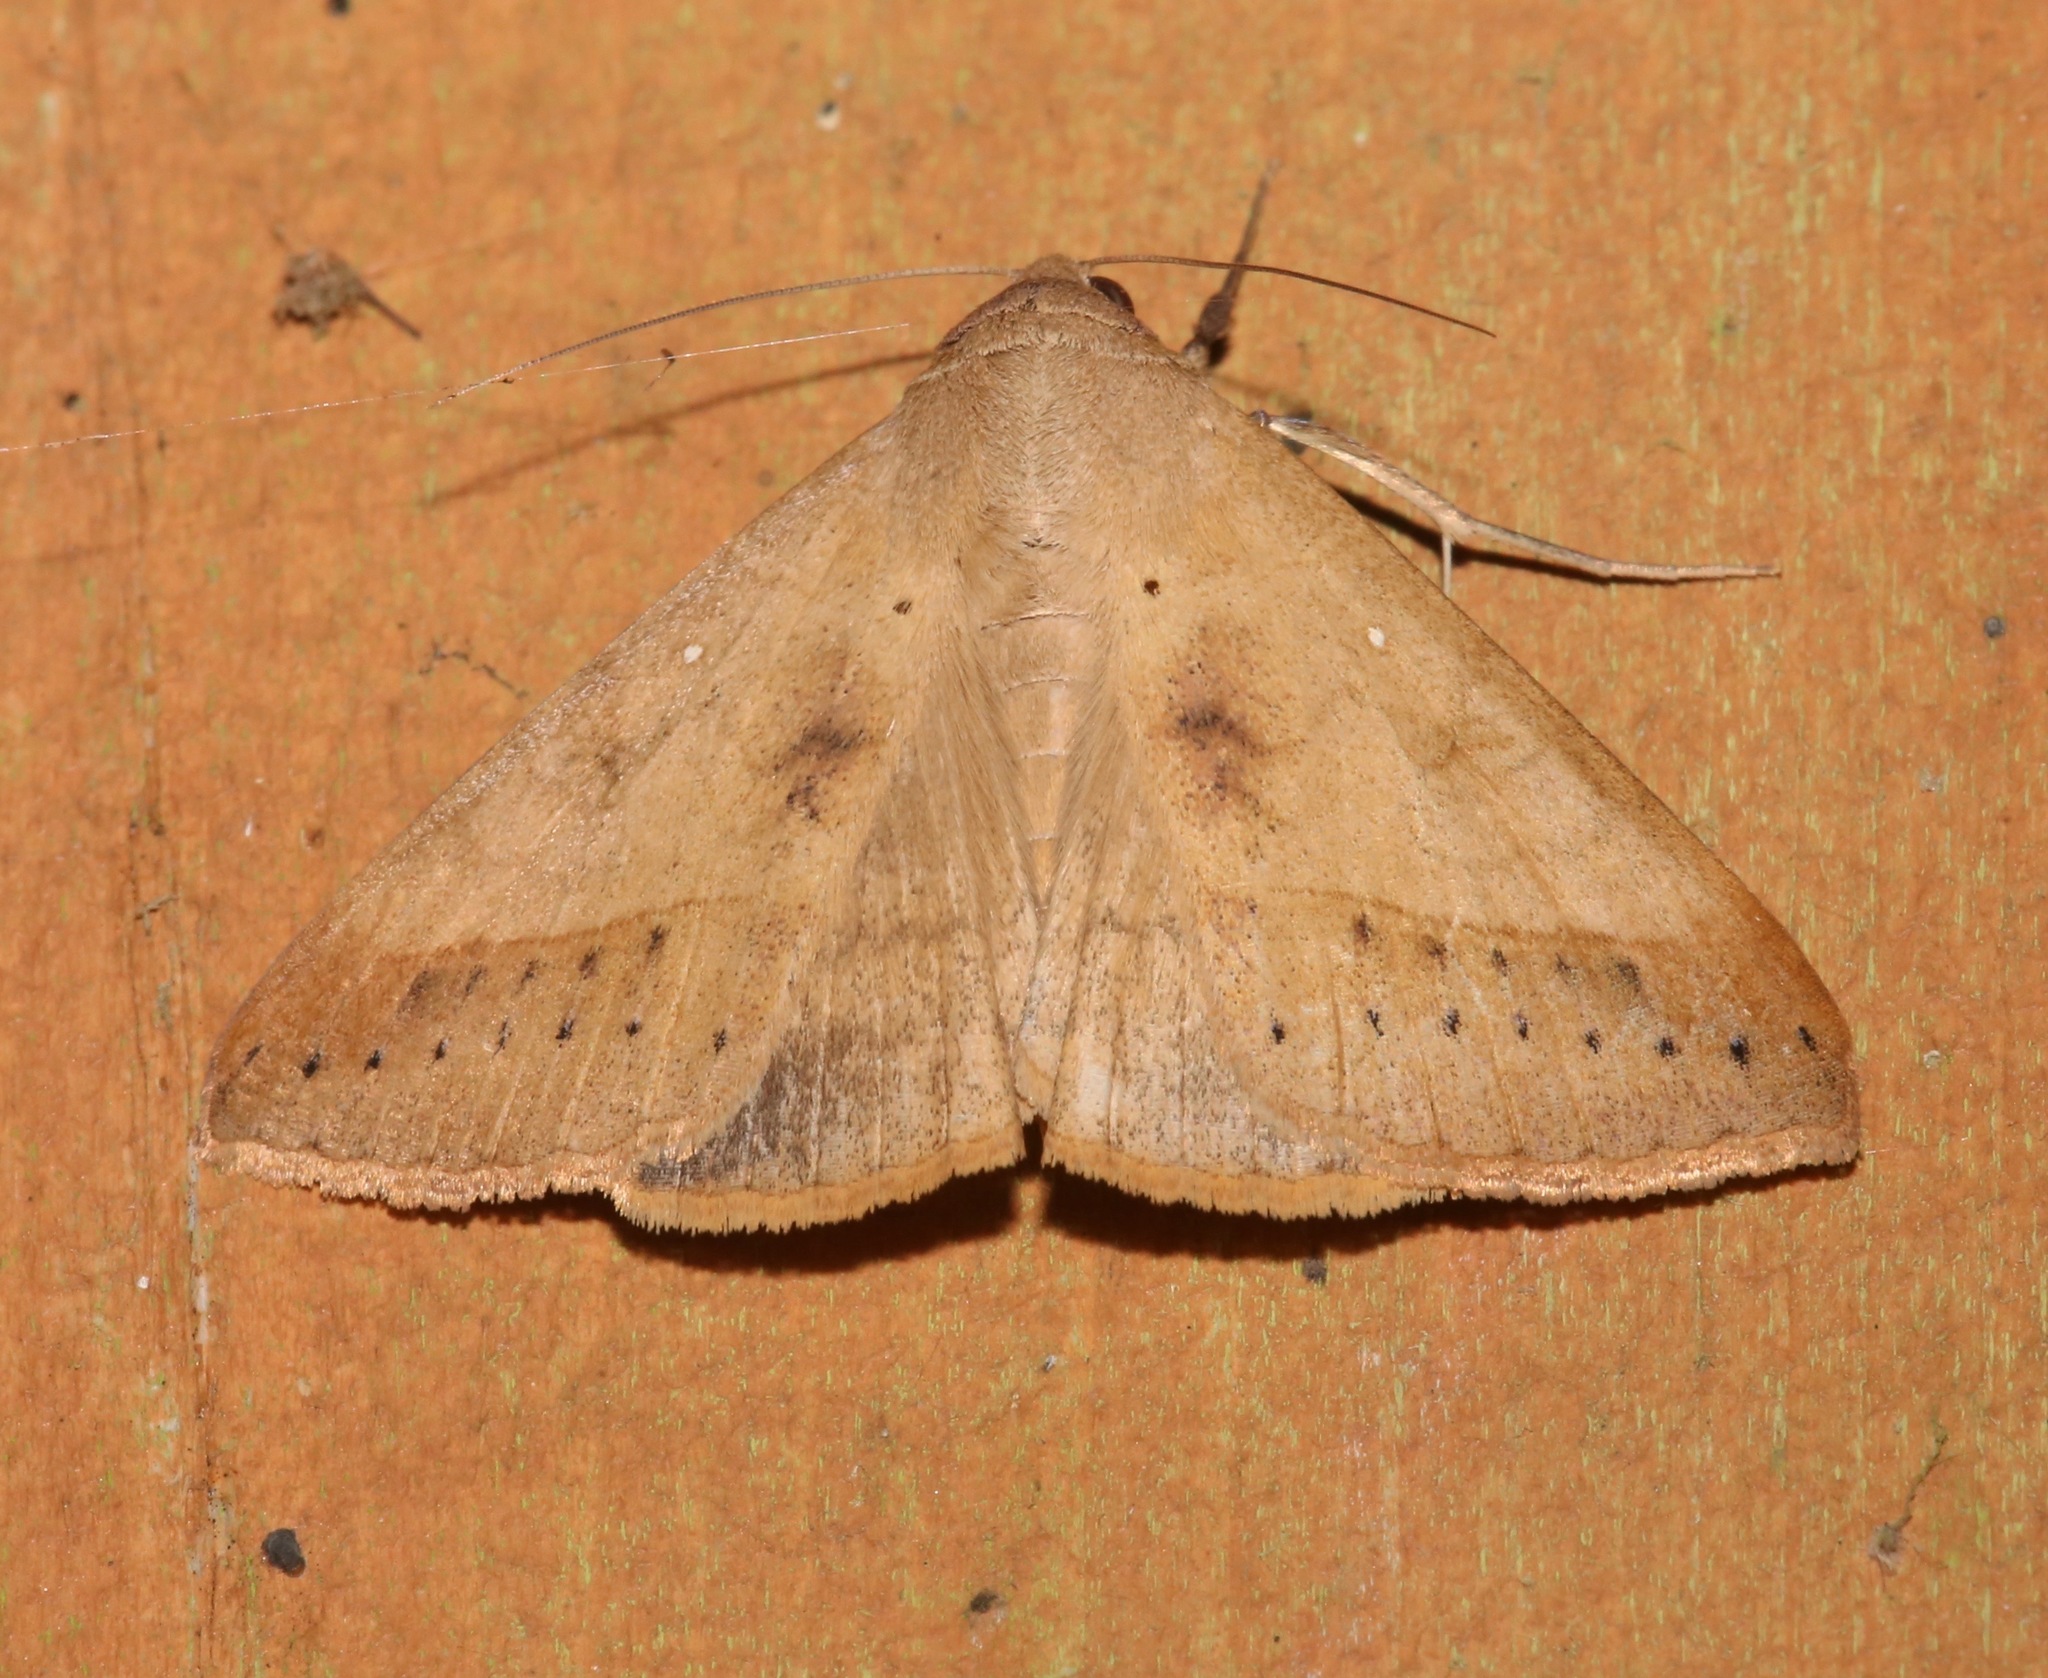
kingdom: Animalia
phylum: Arthropoda
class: Insecta
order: Lepidoptera
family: Erebidae
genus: Mocis
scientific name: Mocis marcida
